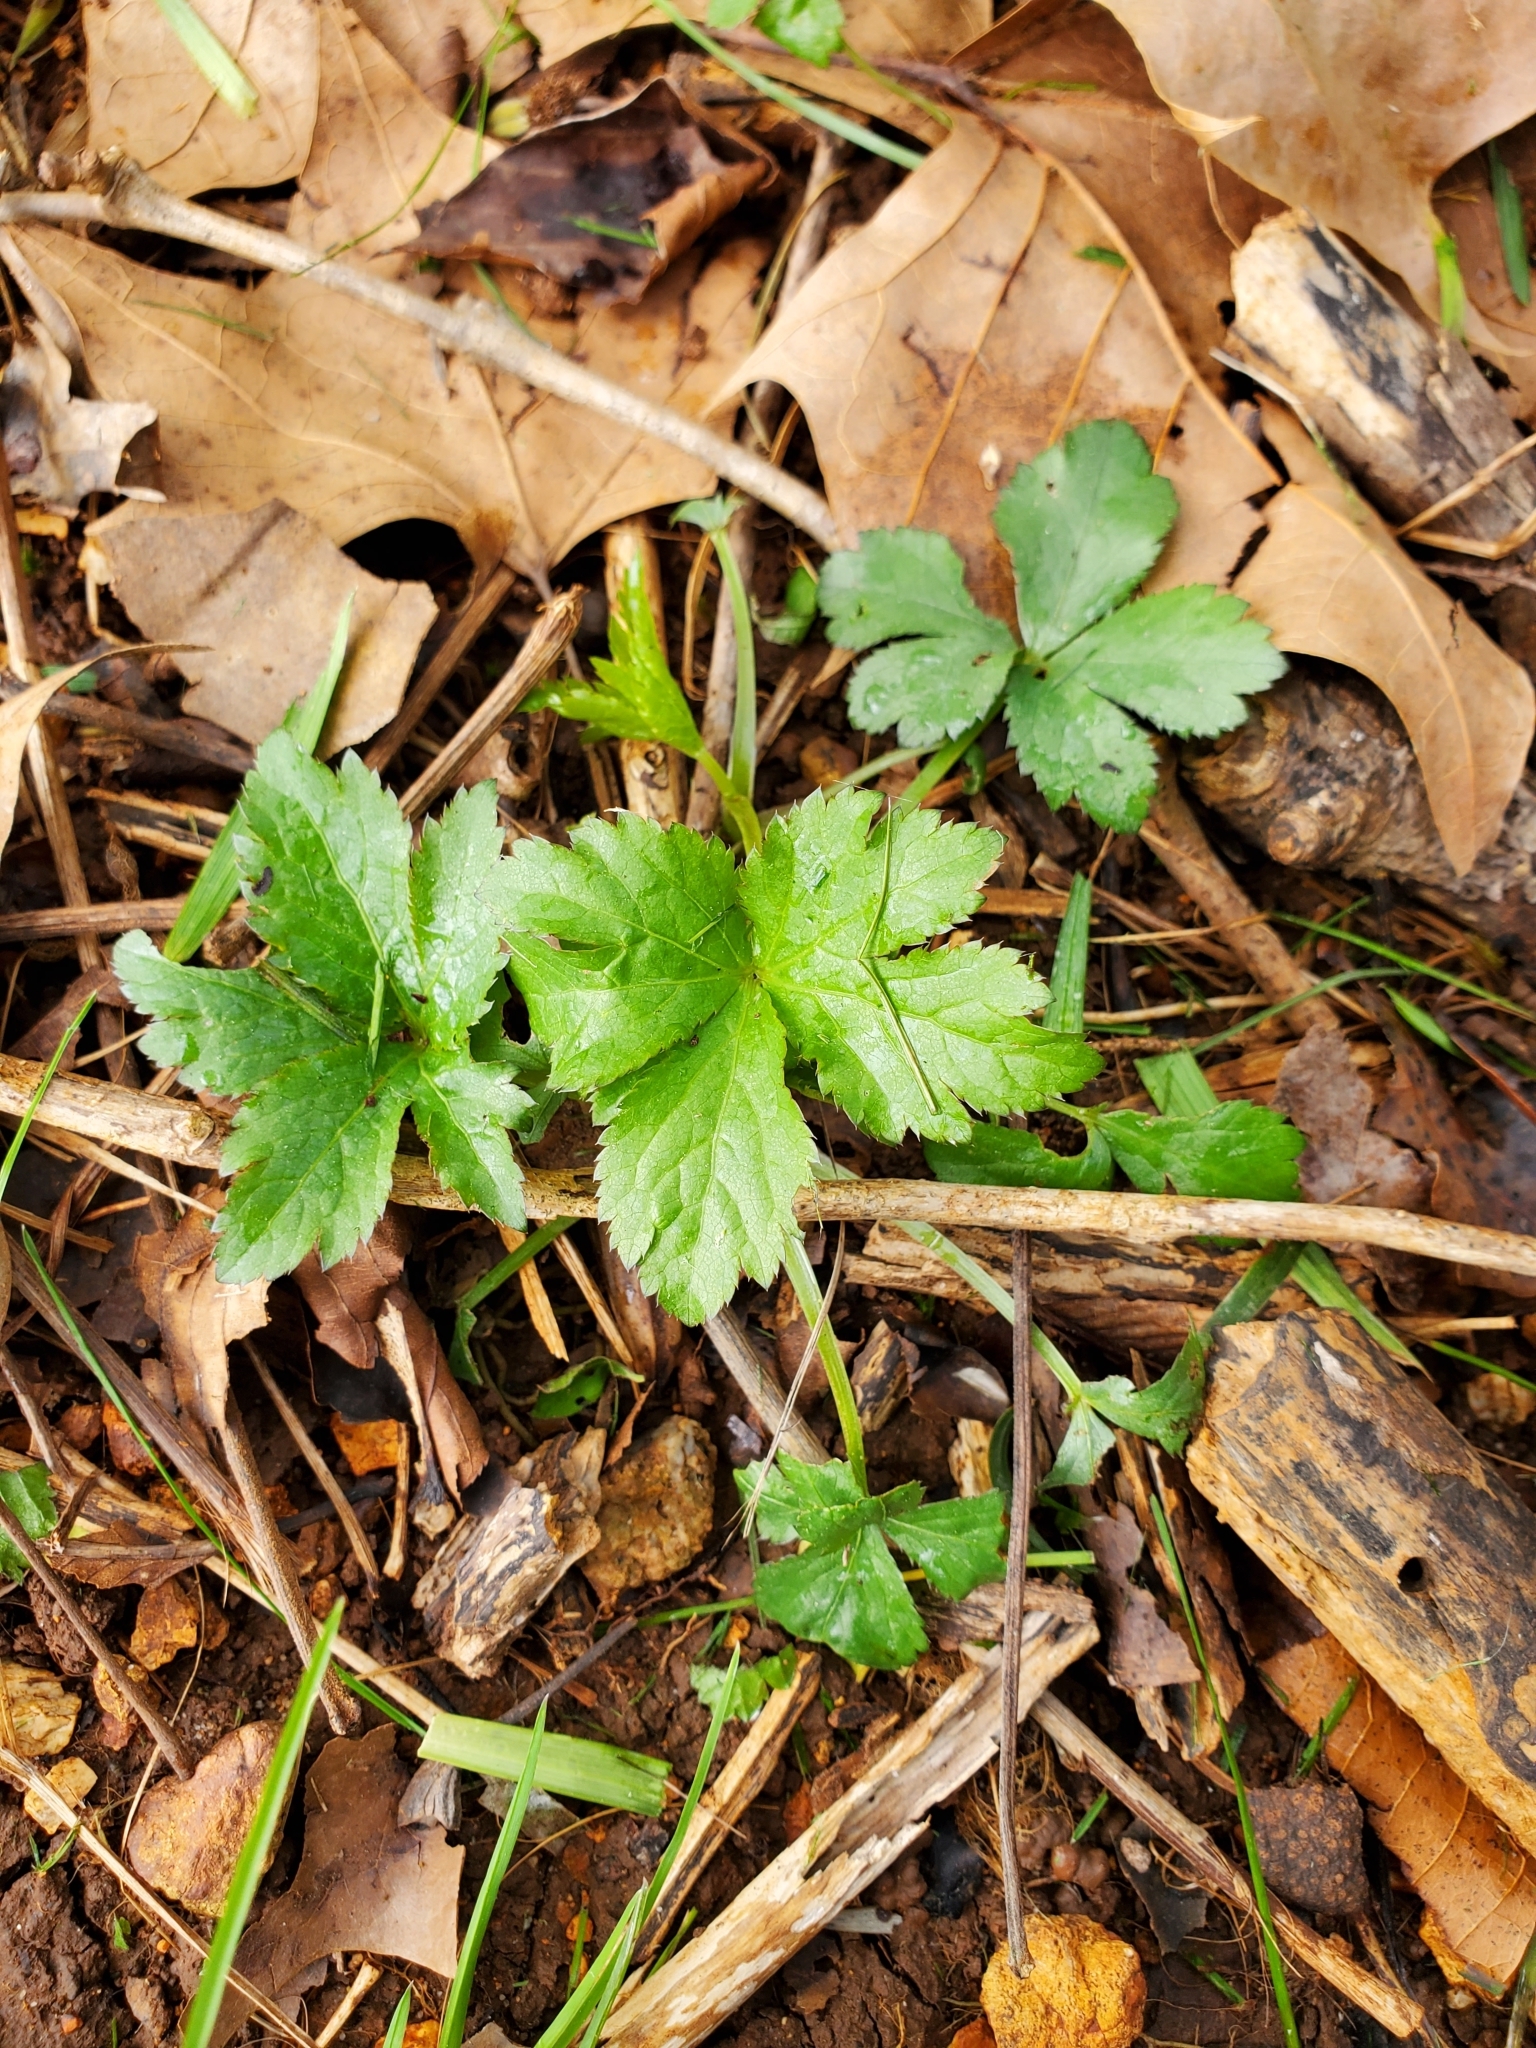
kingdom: Plantae
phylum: Tracheophyta
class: Magnoliopsida
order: Apiales
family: Apiaceae
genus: Sanicula
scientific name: Sanicula canadensis
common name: Canada sanicle
